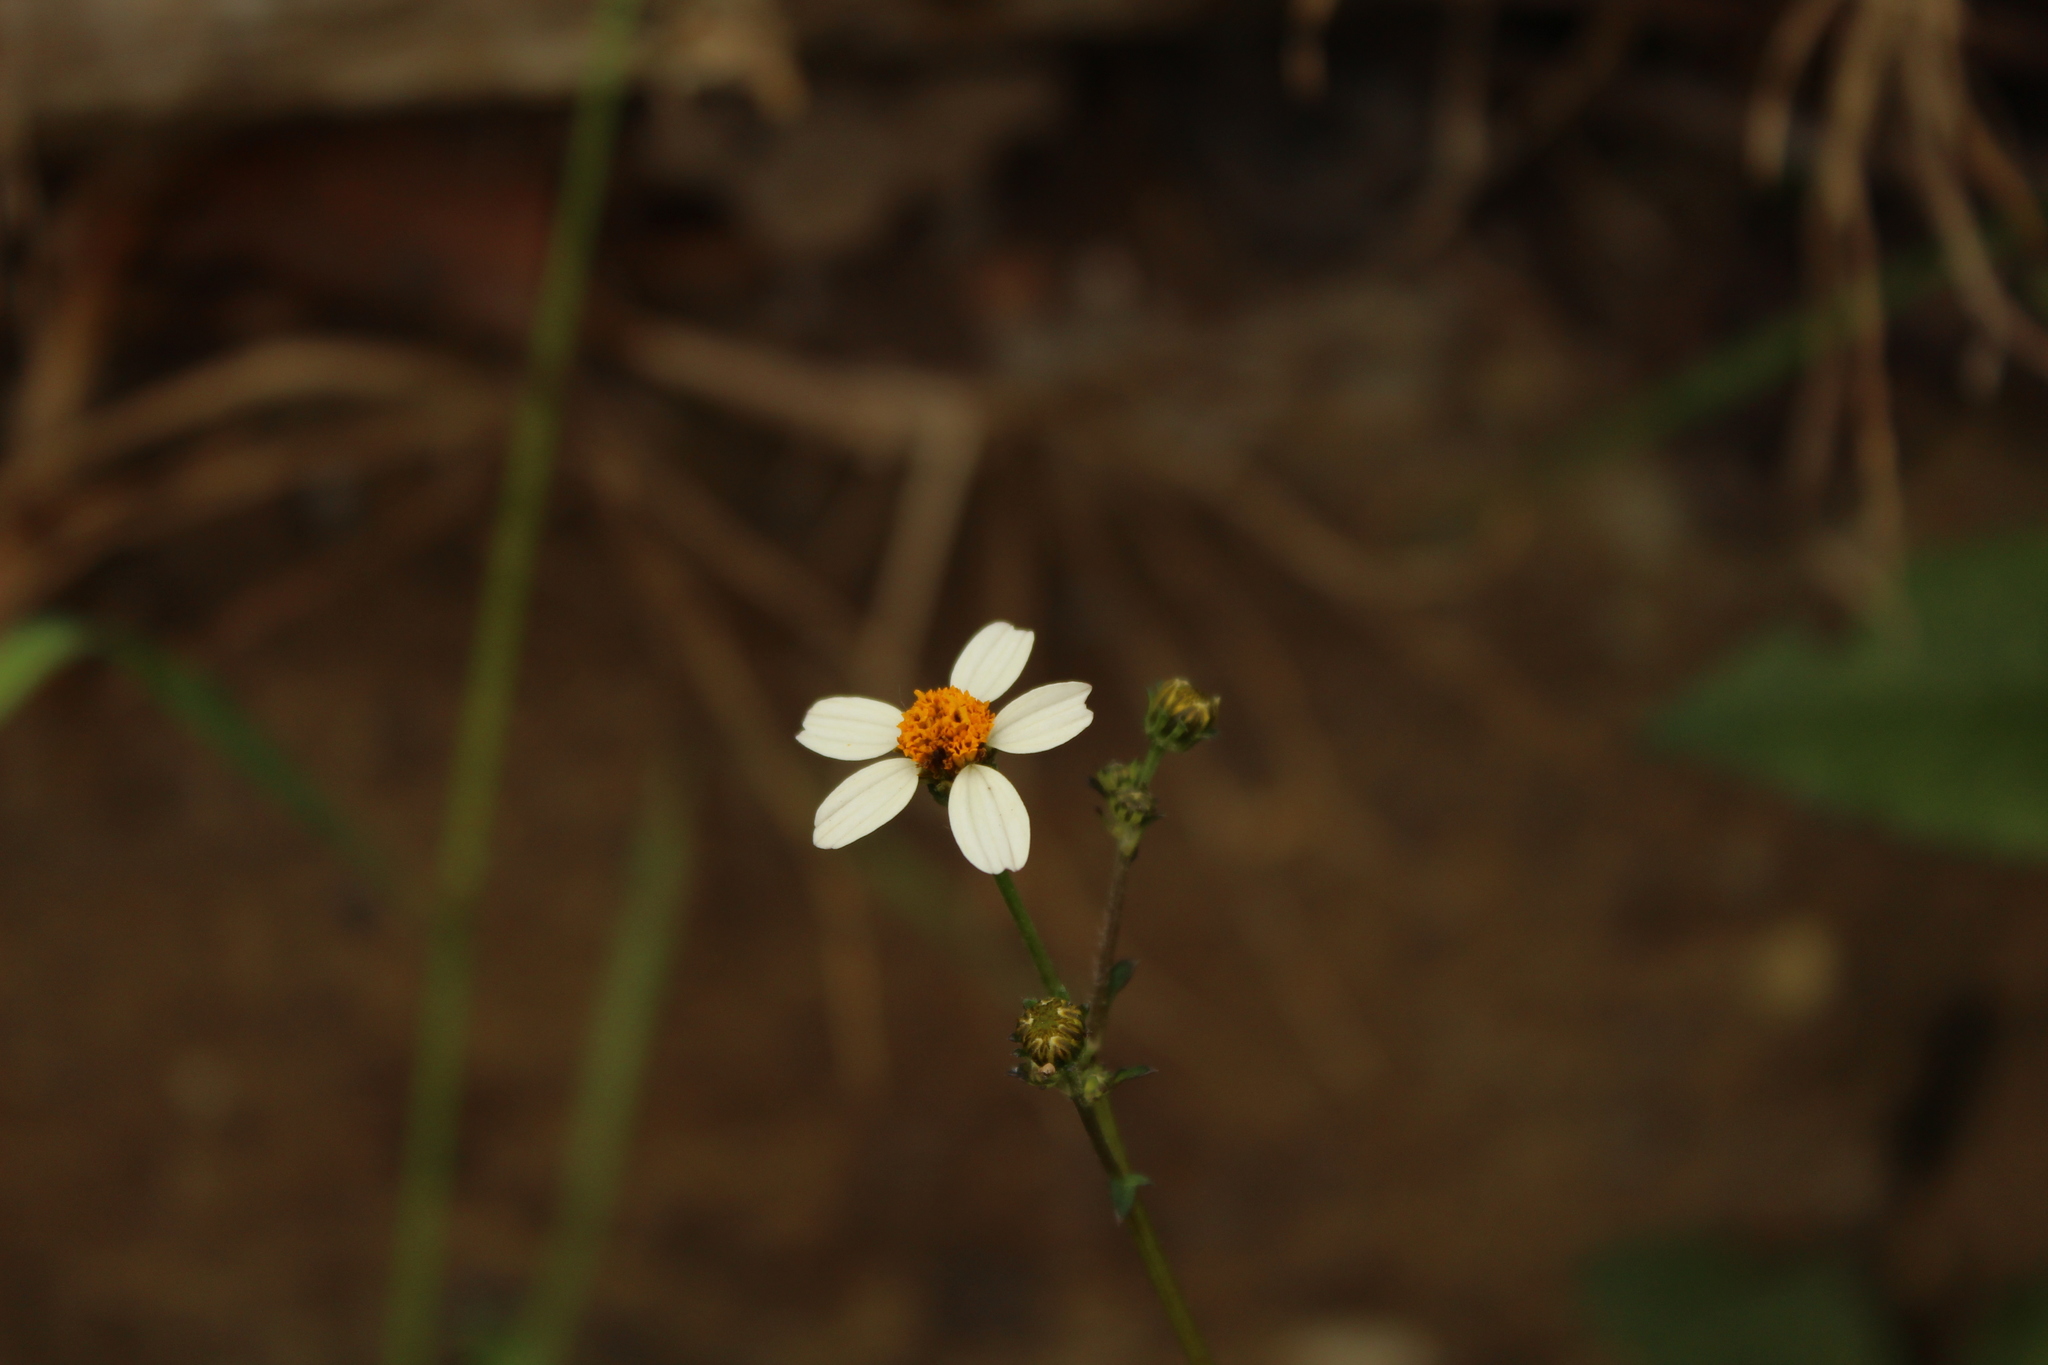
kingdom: Plantae
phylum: Tracheophyta
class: Magnoliopsida
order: Asterales
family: Asteraceae
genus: Bidens
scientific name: Bidens alba
